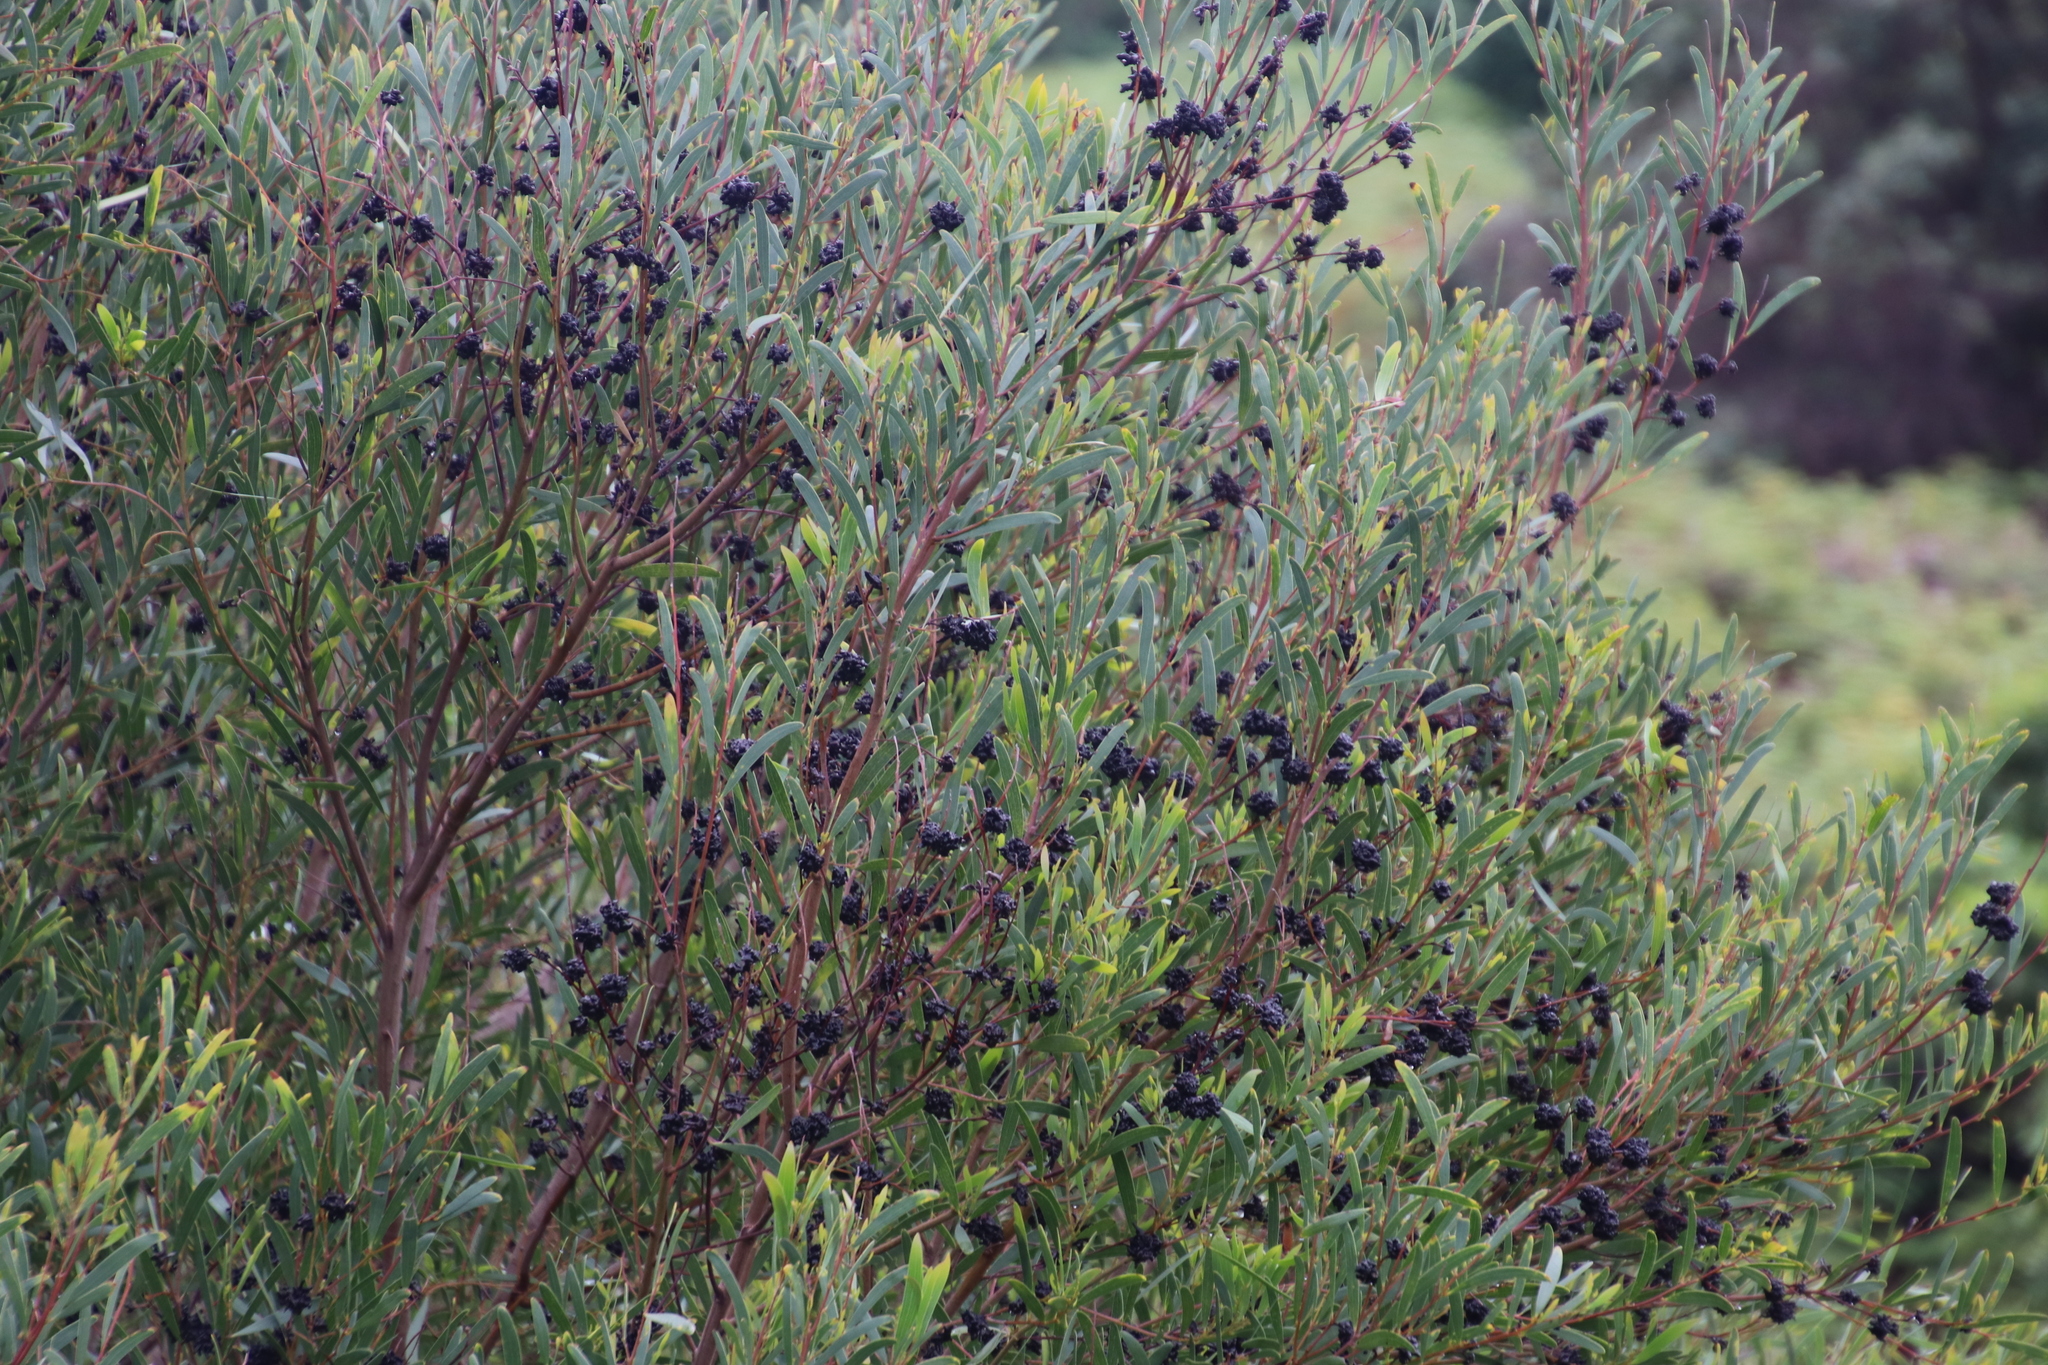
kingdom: Plantae
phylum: Tracheophyta
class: Magnoliopsida
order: Fabales
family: Fabaceae
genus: Acacia
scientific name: Acacia cyclops
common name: Coastal wattle
